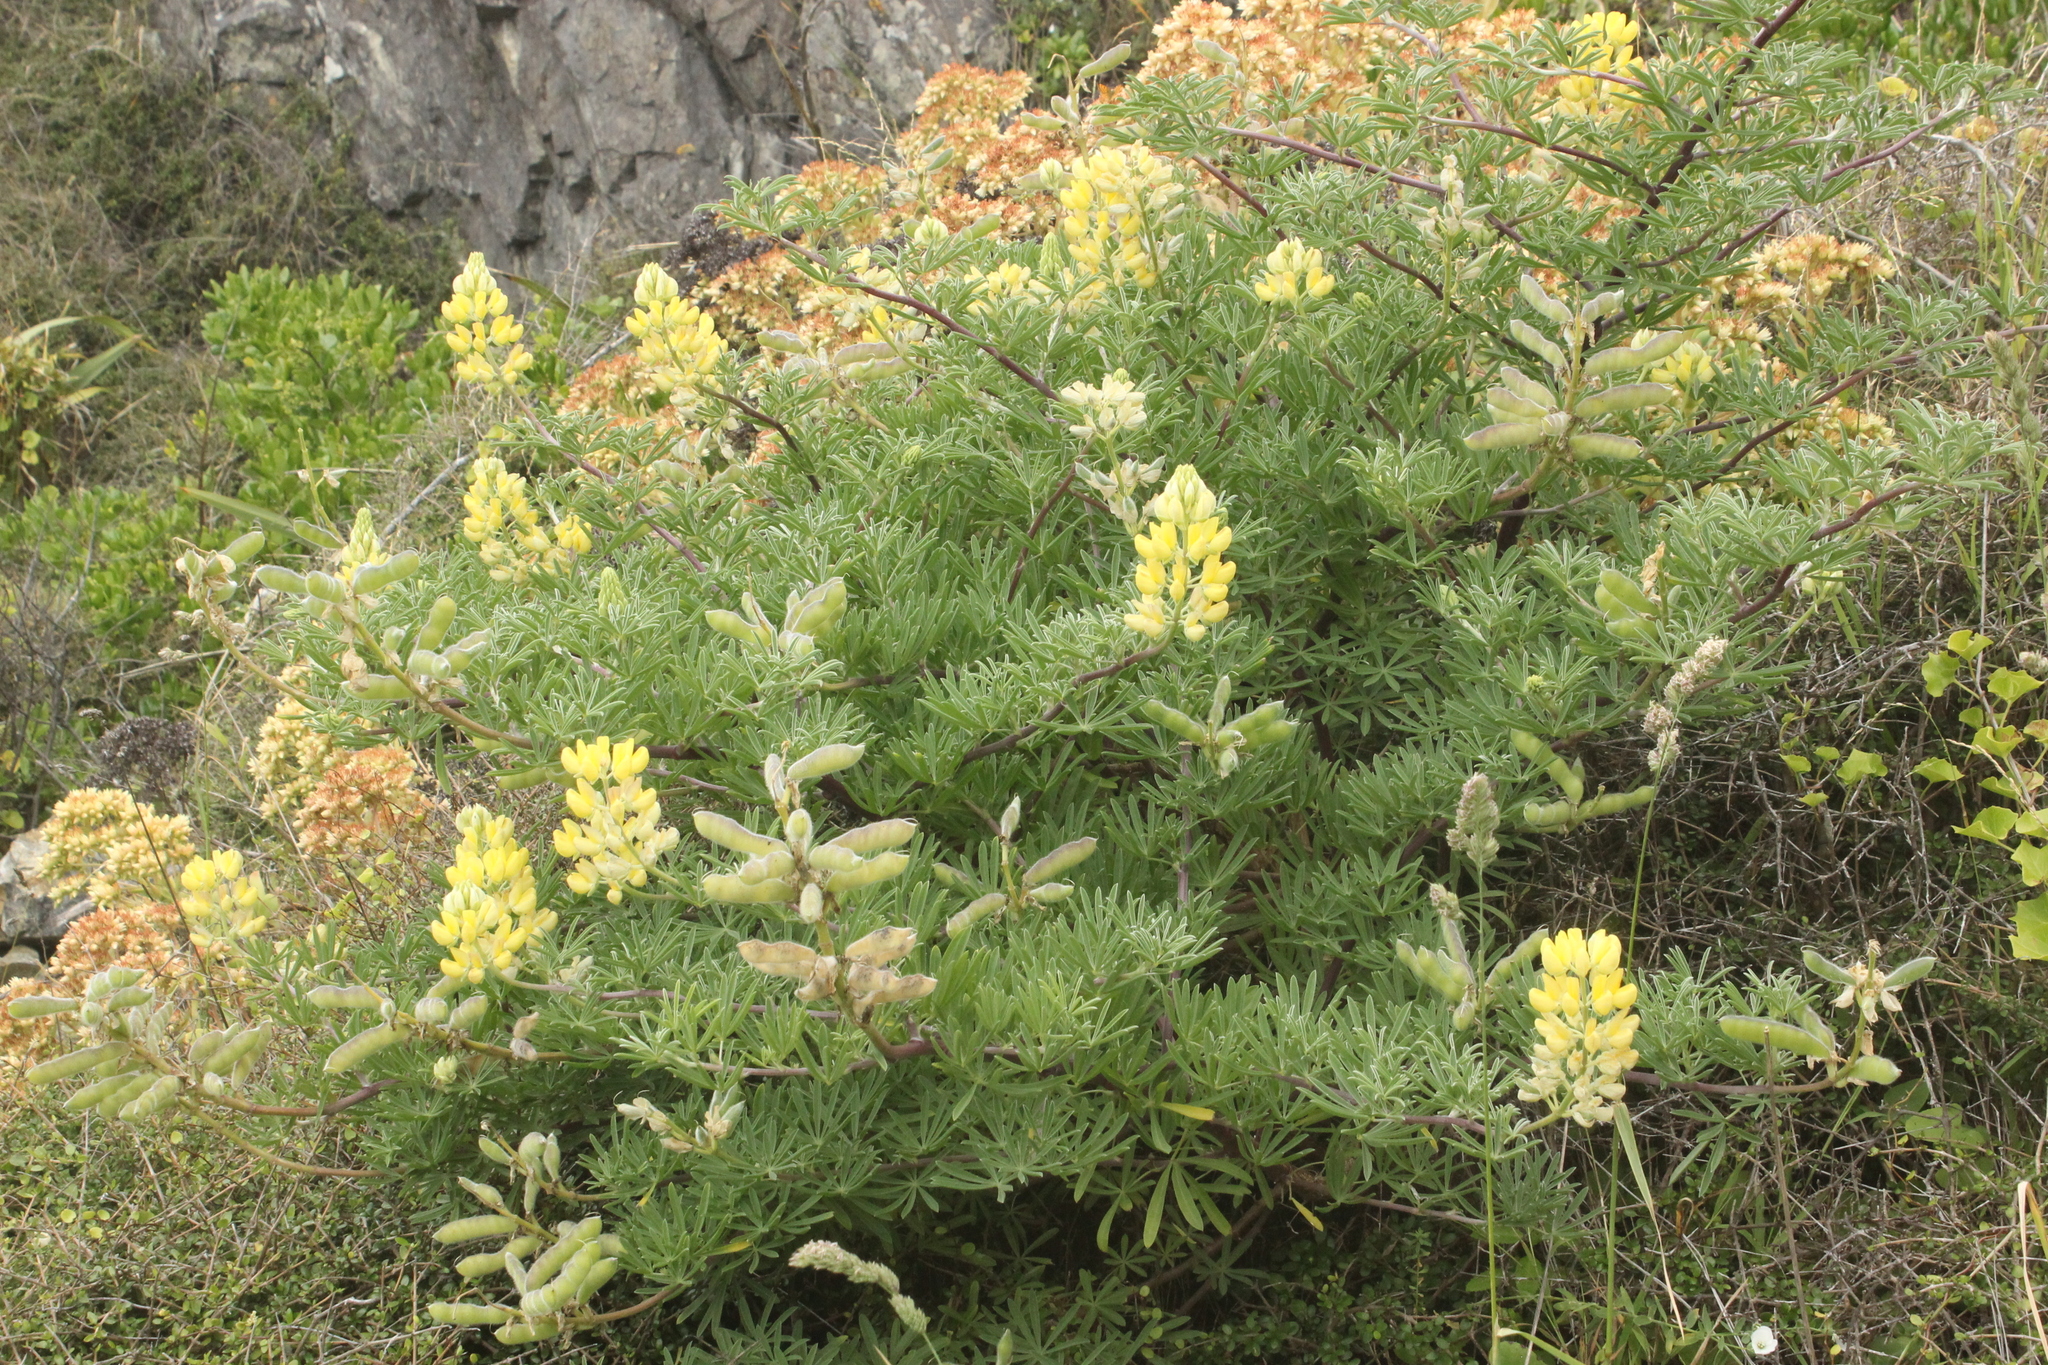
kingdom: Plantae
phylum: Tracheophyta
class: Magnoliopsida
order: Fabales
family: Fabaceae
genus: Lupinus
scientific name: Lupinus arboreus
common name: Yellow bush lupine
